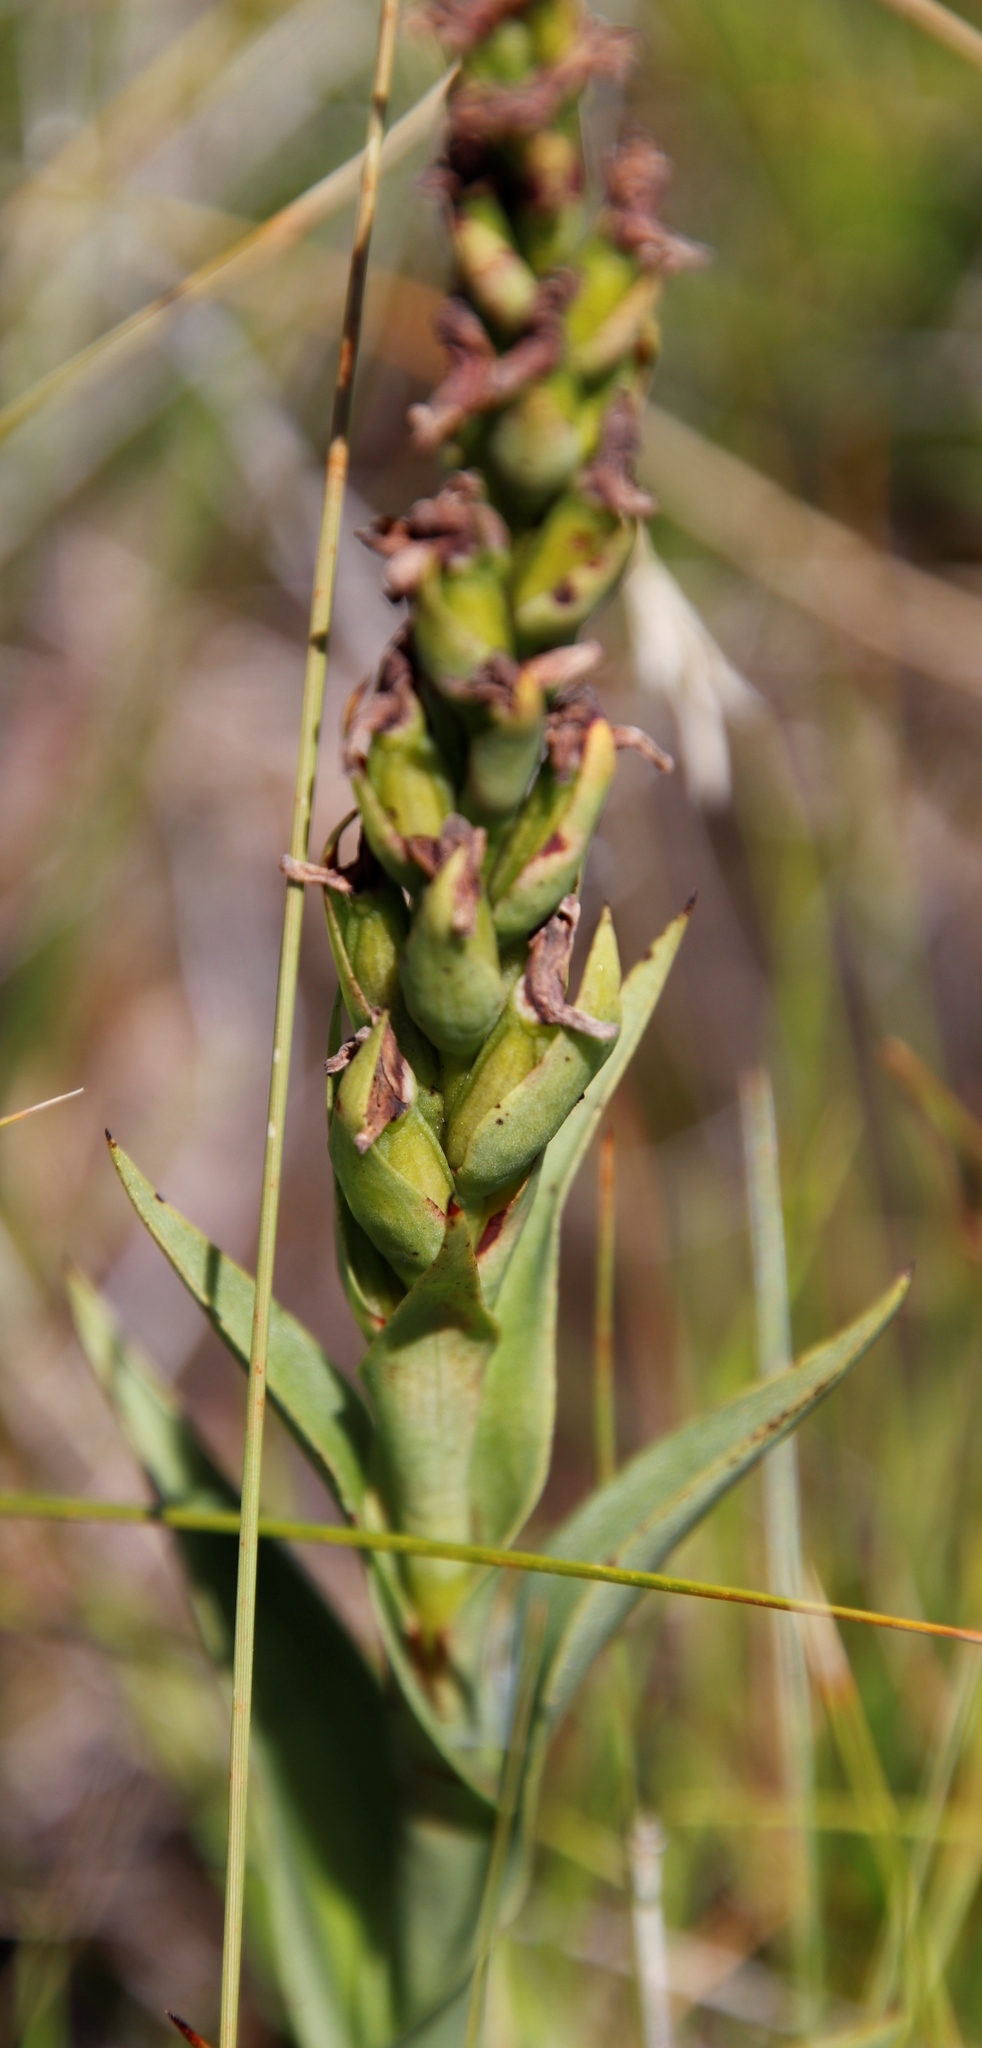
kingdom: Plantae
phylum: Tracheophyta
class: Liliopsida
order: Asparagales
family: Orchidaceae
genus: Disa
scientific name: Disa stachyoides
